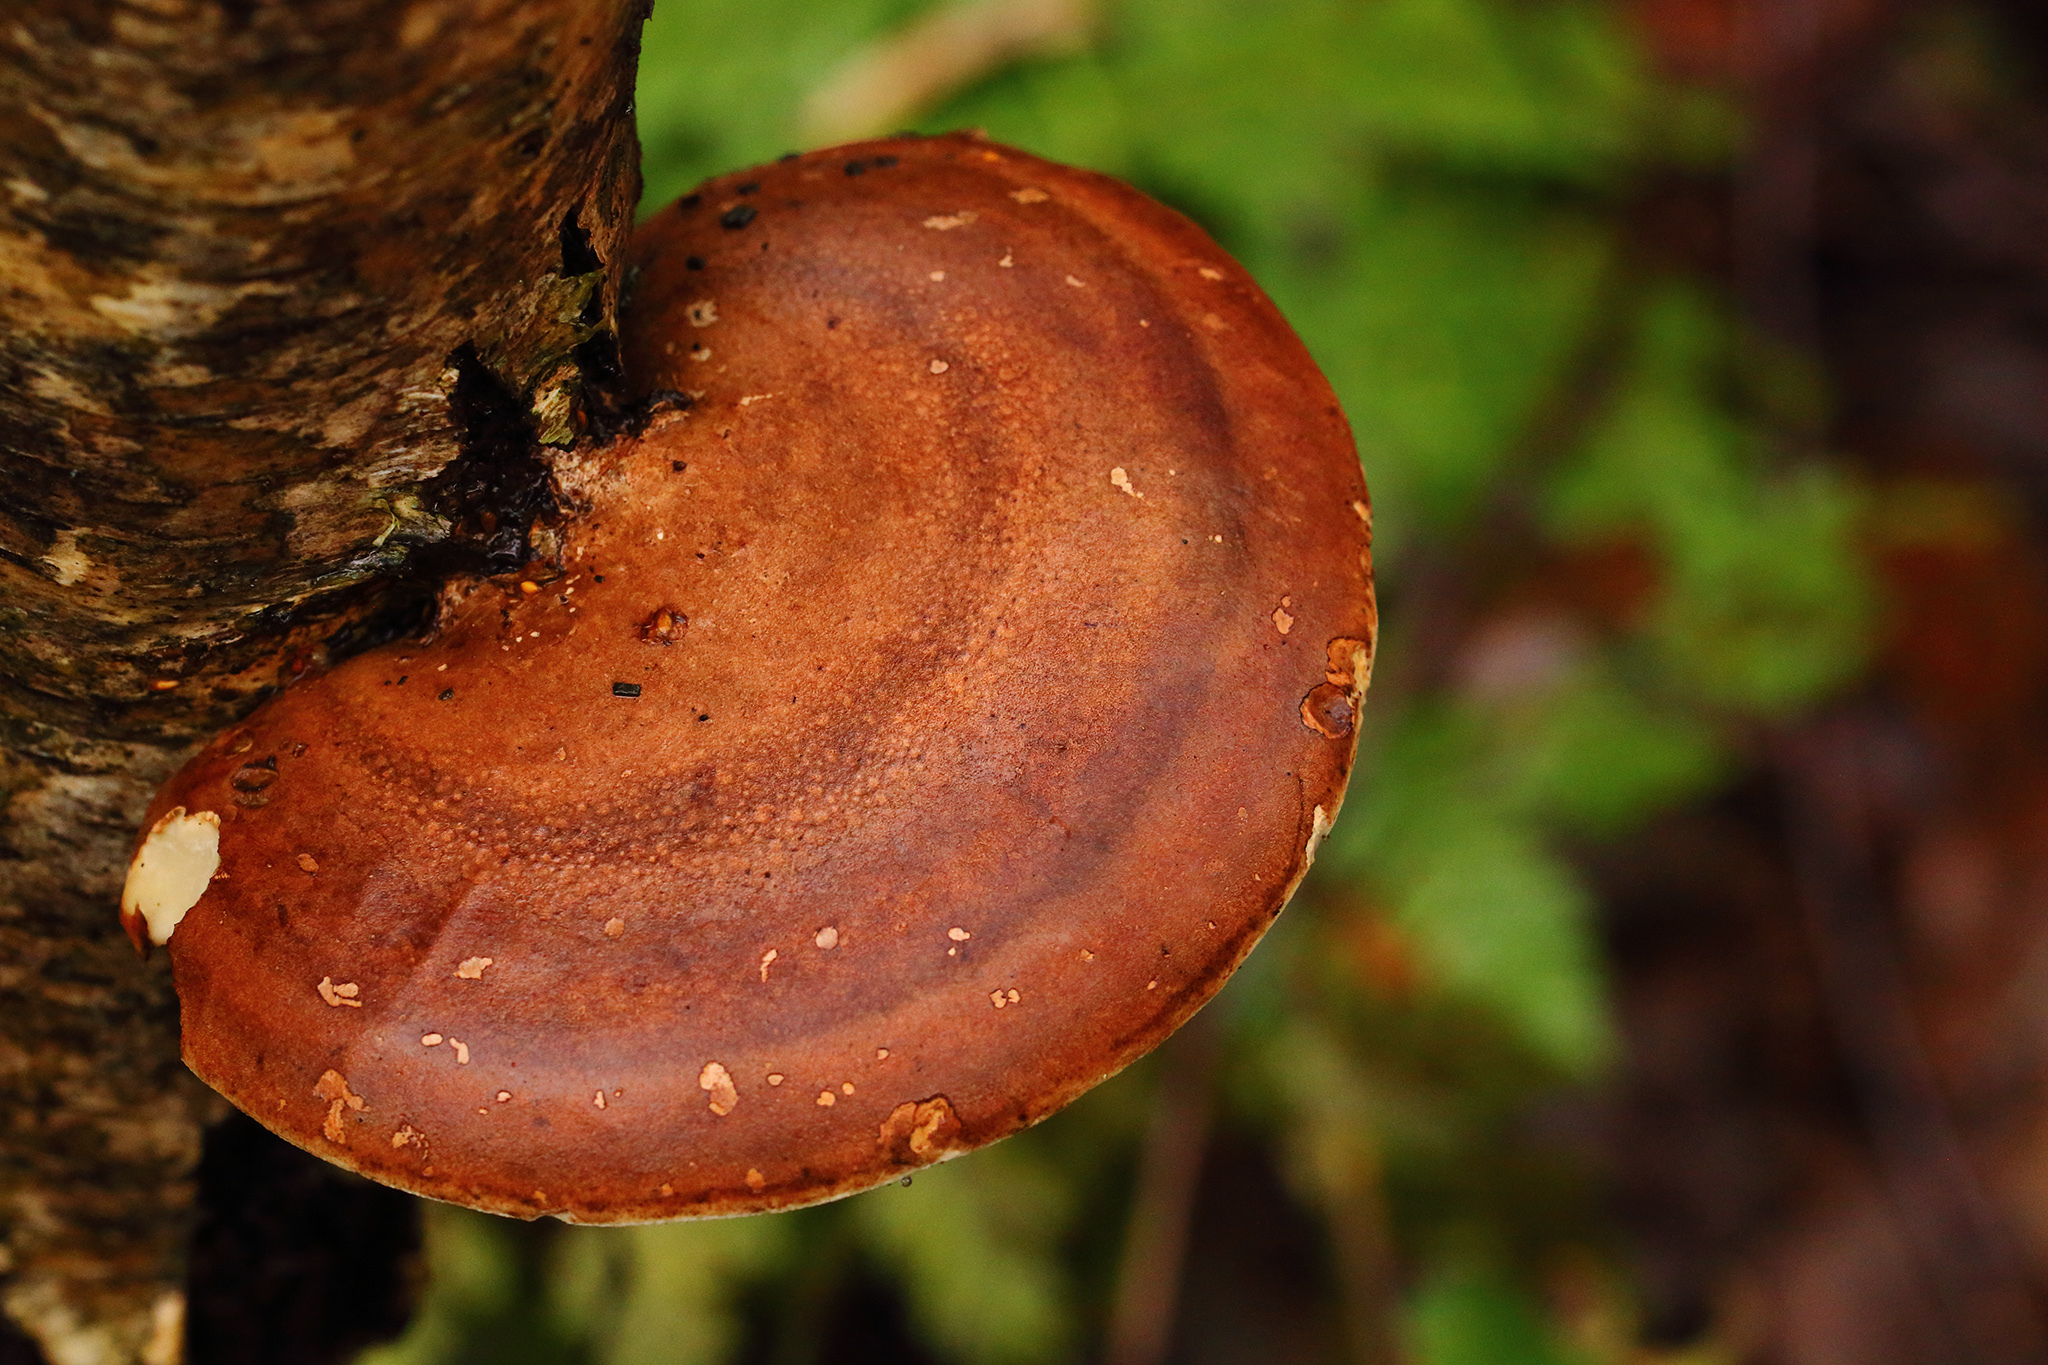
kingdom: Fungi
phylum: Basidiomycota
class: Agaricomycetes
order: Polyporales
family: Fomitopsidaceae
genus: Fomitopsis
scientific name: Fomitopsis betulina
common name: Birch polypore
